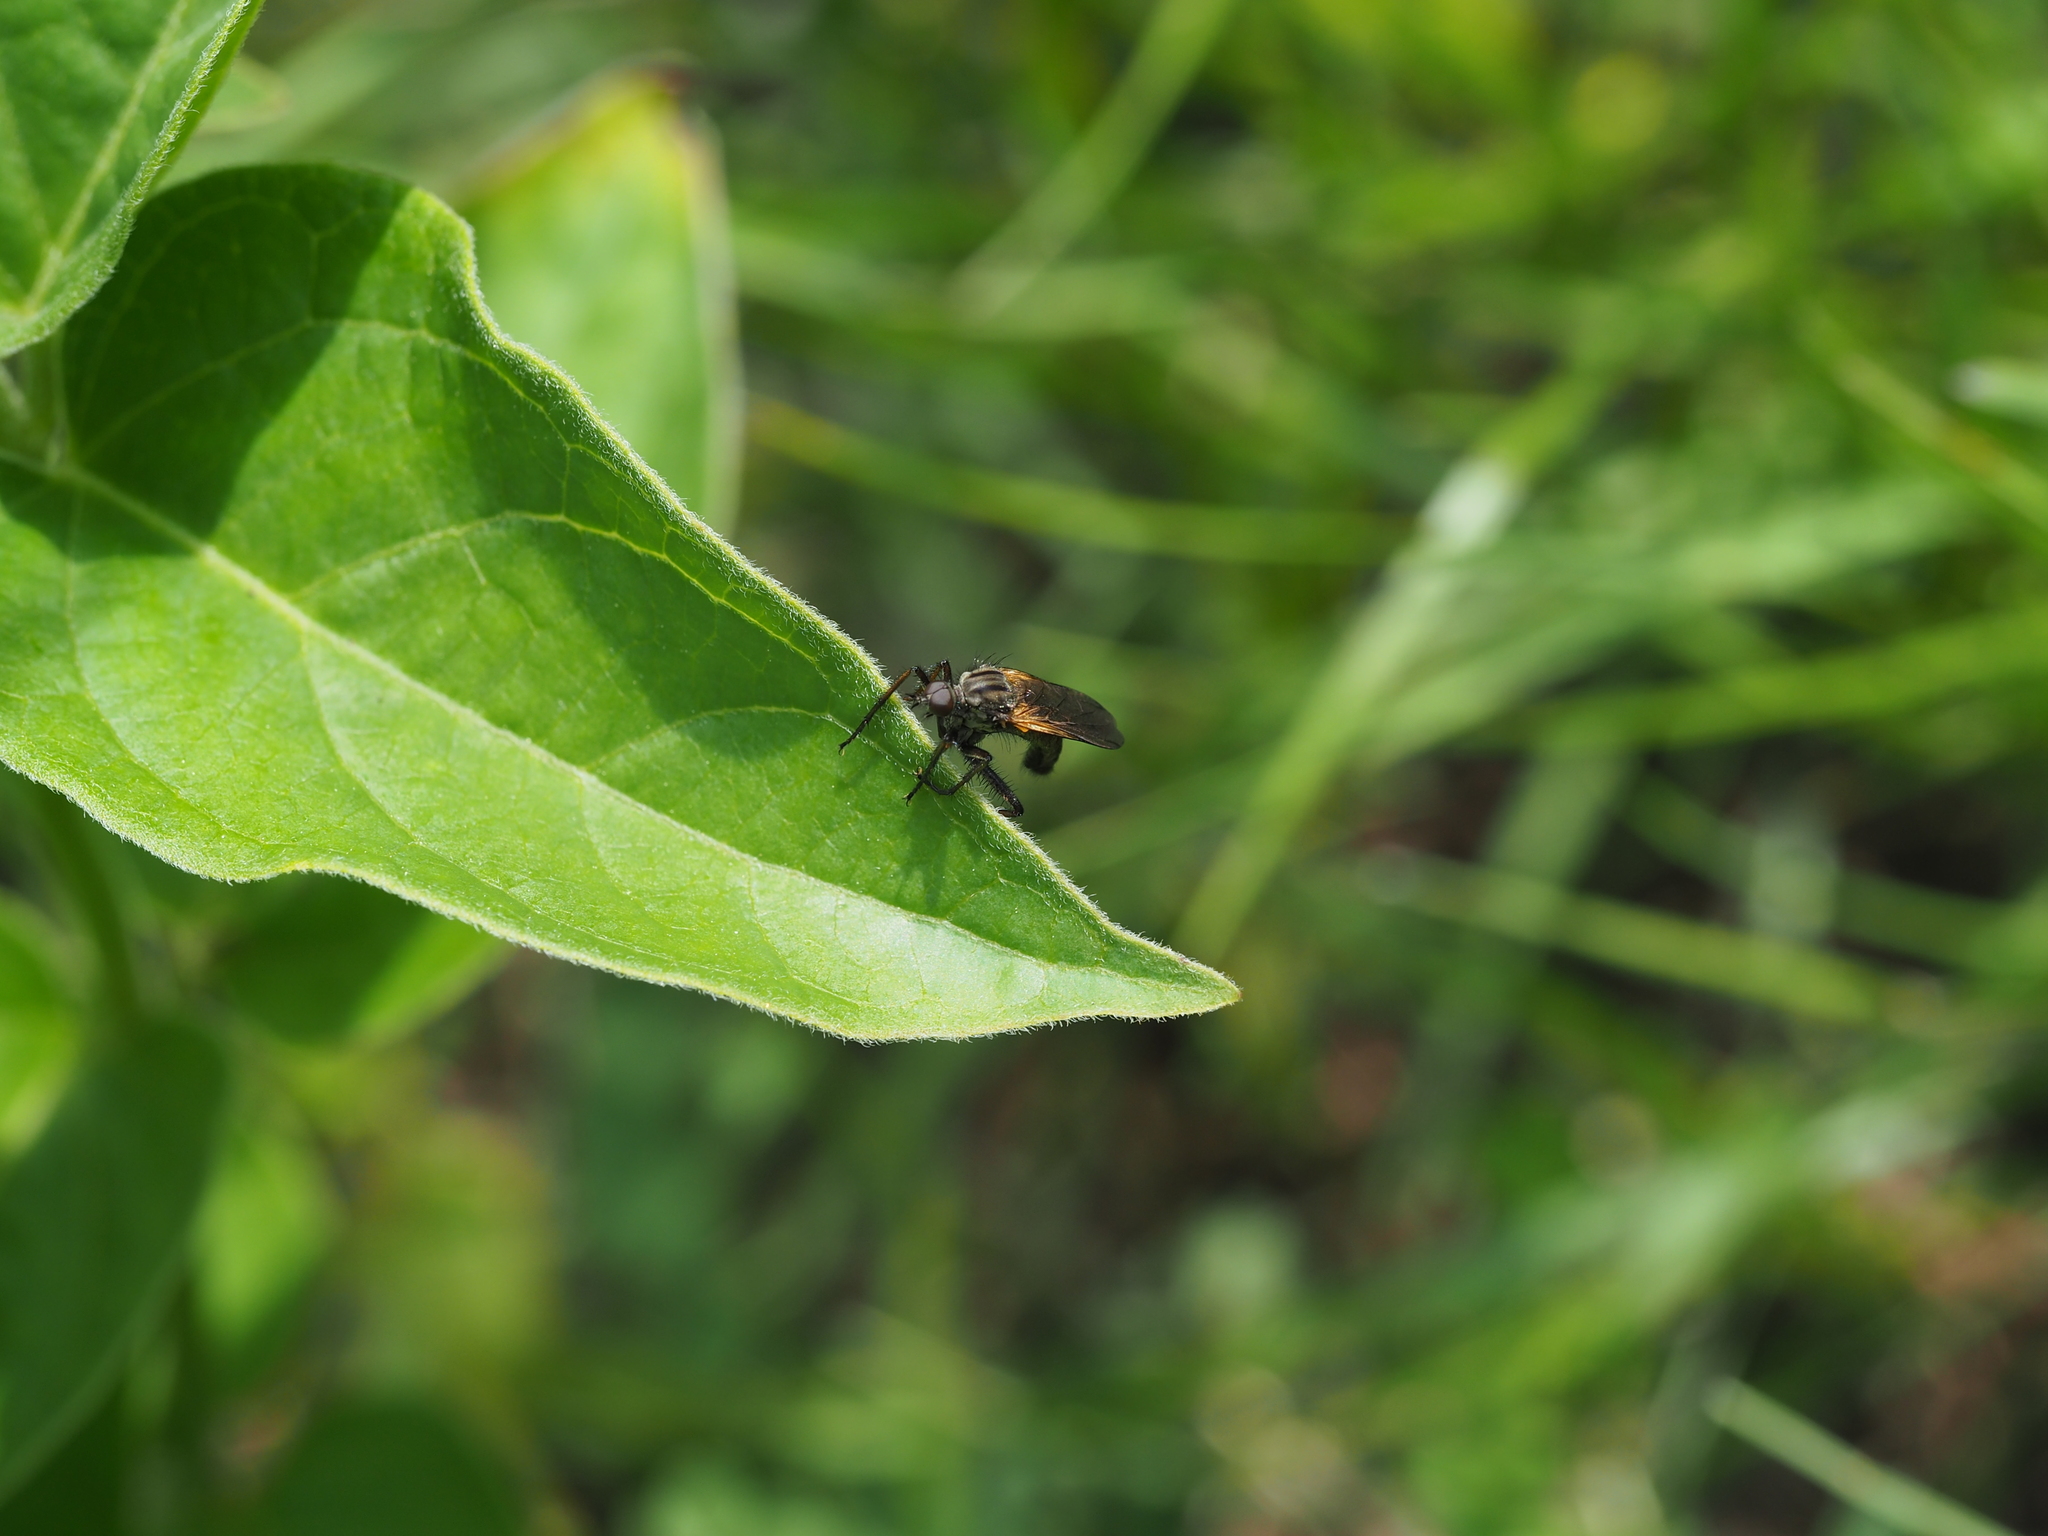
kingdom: Animalia
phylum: Arthropoda
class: Insecta
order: Diptera
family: Empididae
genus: Empis
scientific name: Empis tessellata
